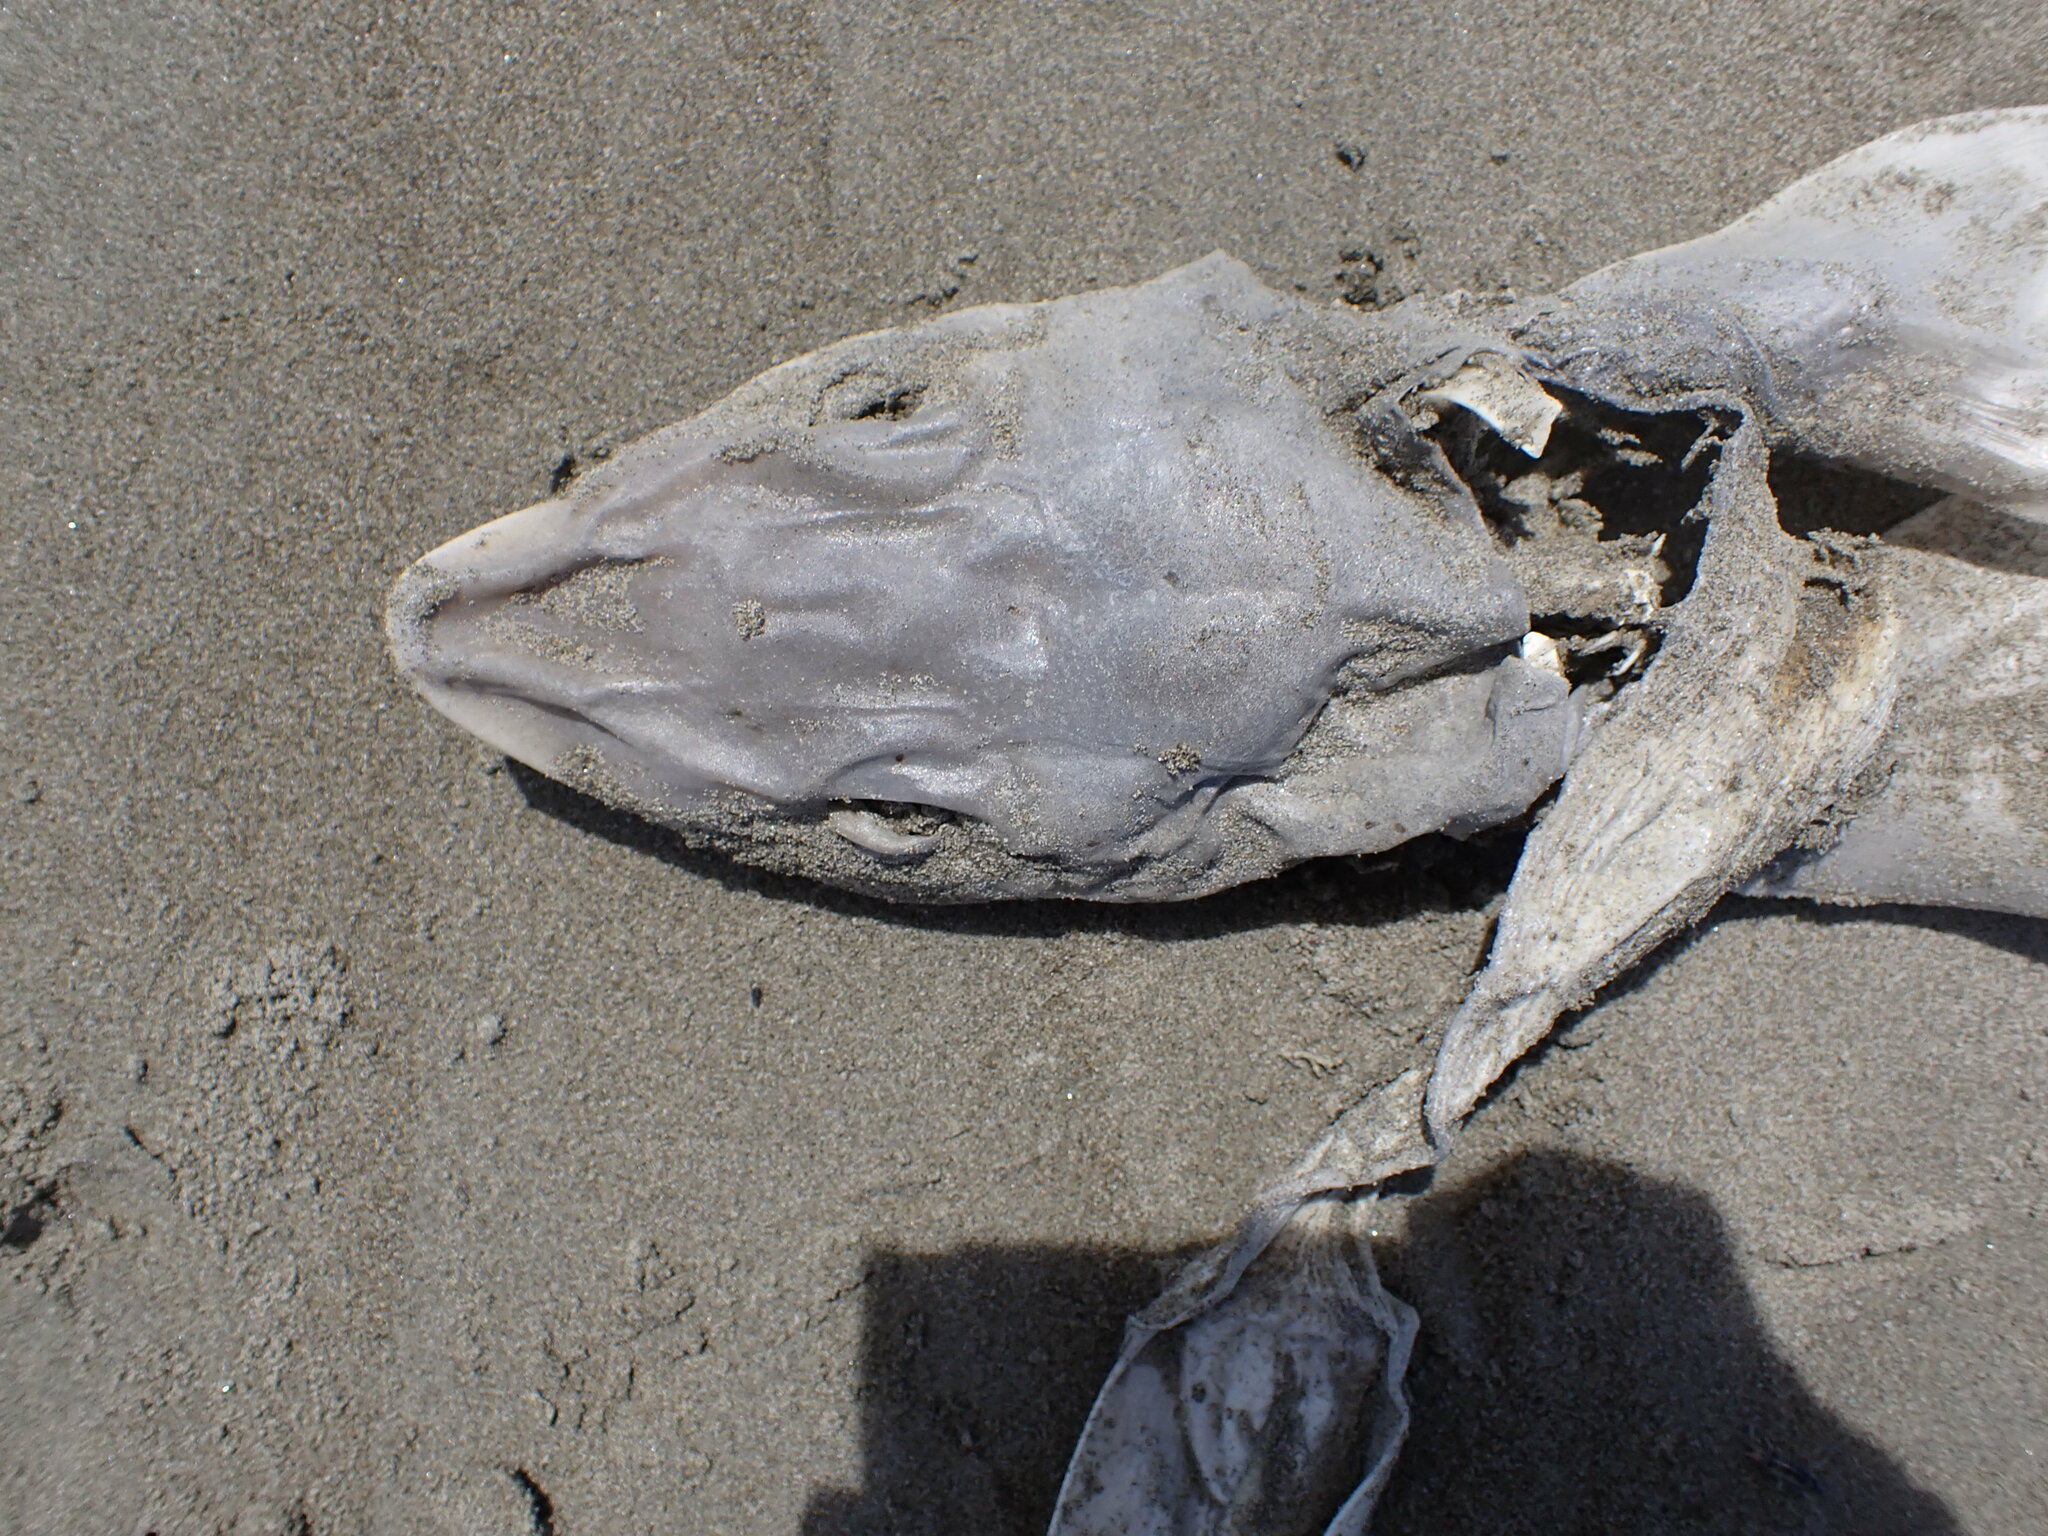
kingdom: Animalia
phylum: Chordata
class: Elasmobranchii
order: Carcharhiniformes
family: Triakidae
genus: Mustelus
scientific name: Mustelus lenticulatus
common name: Gummy shark
